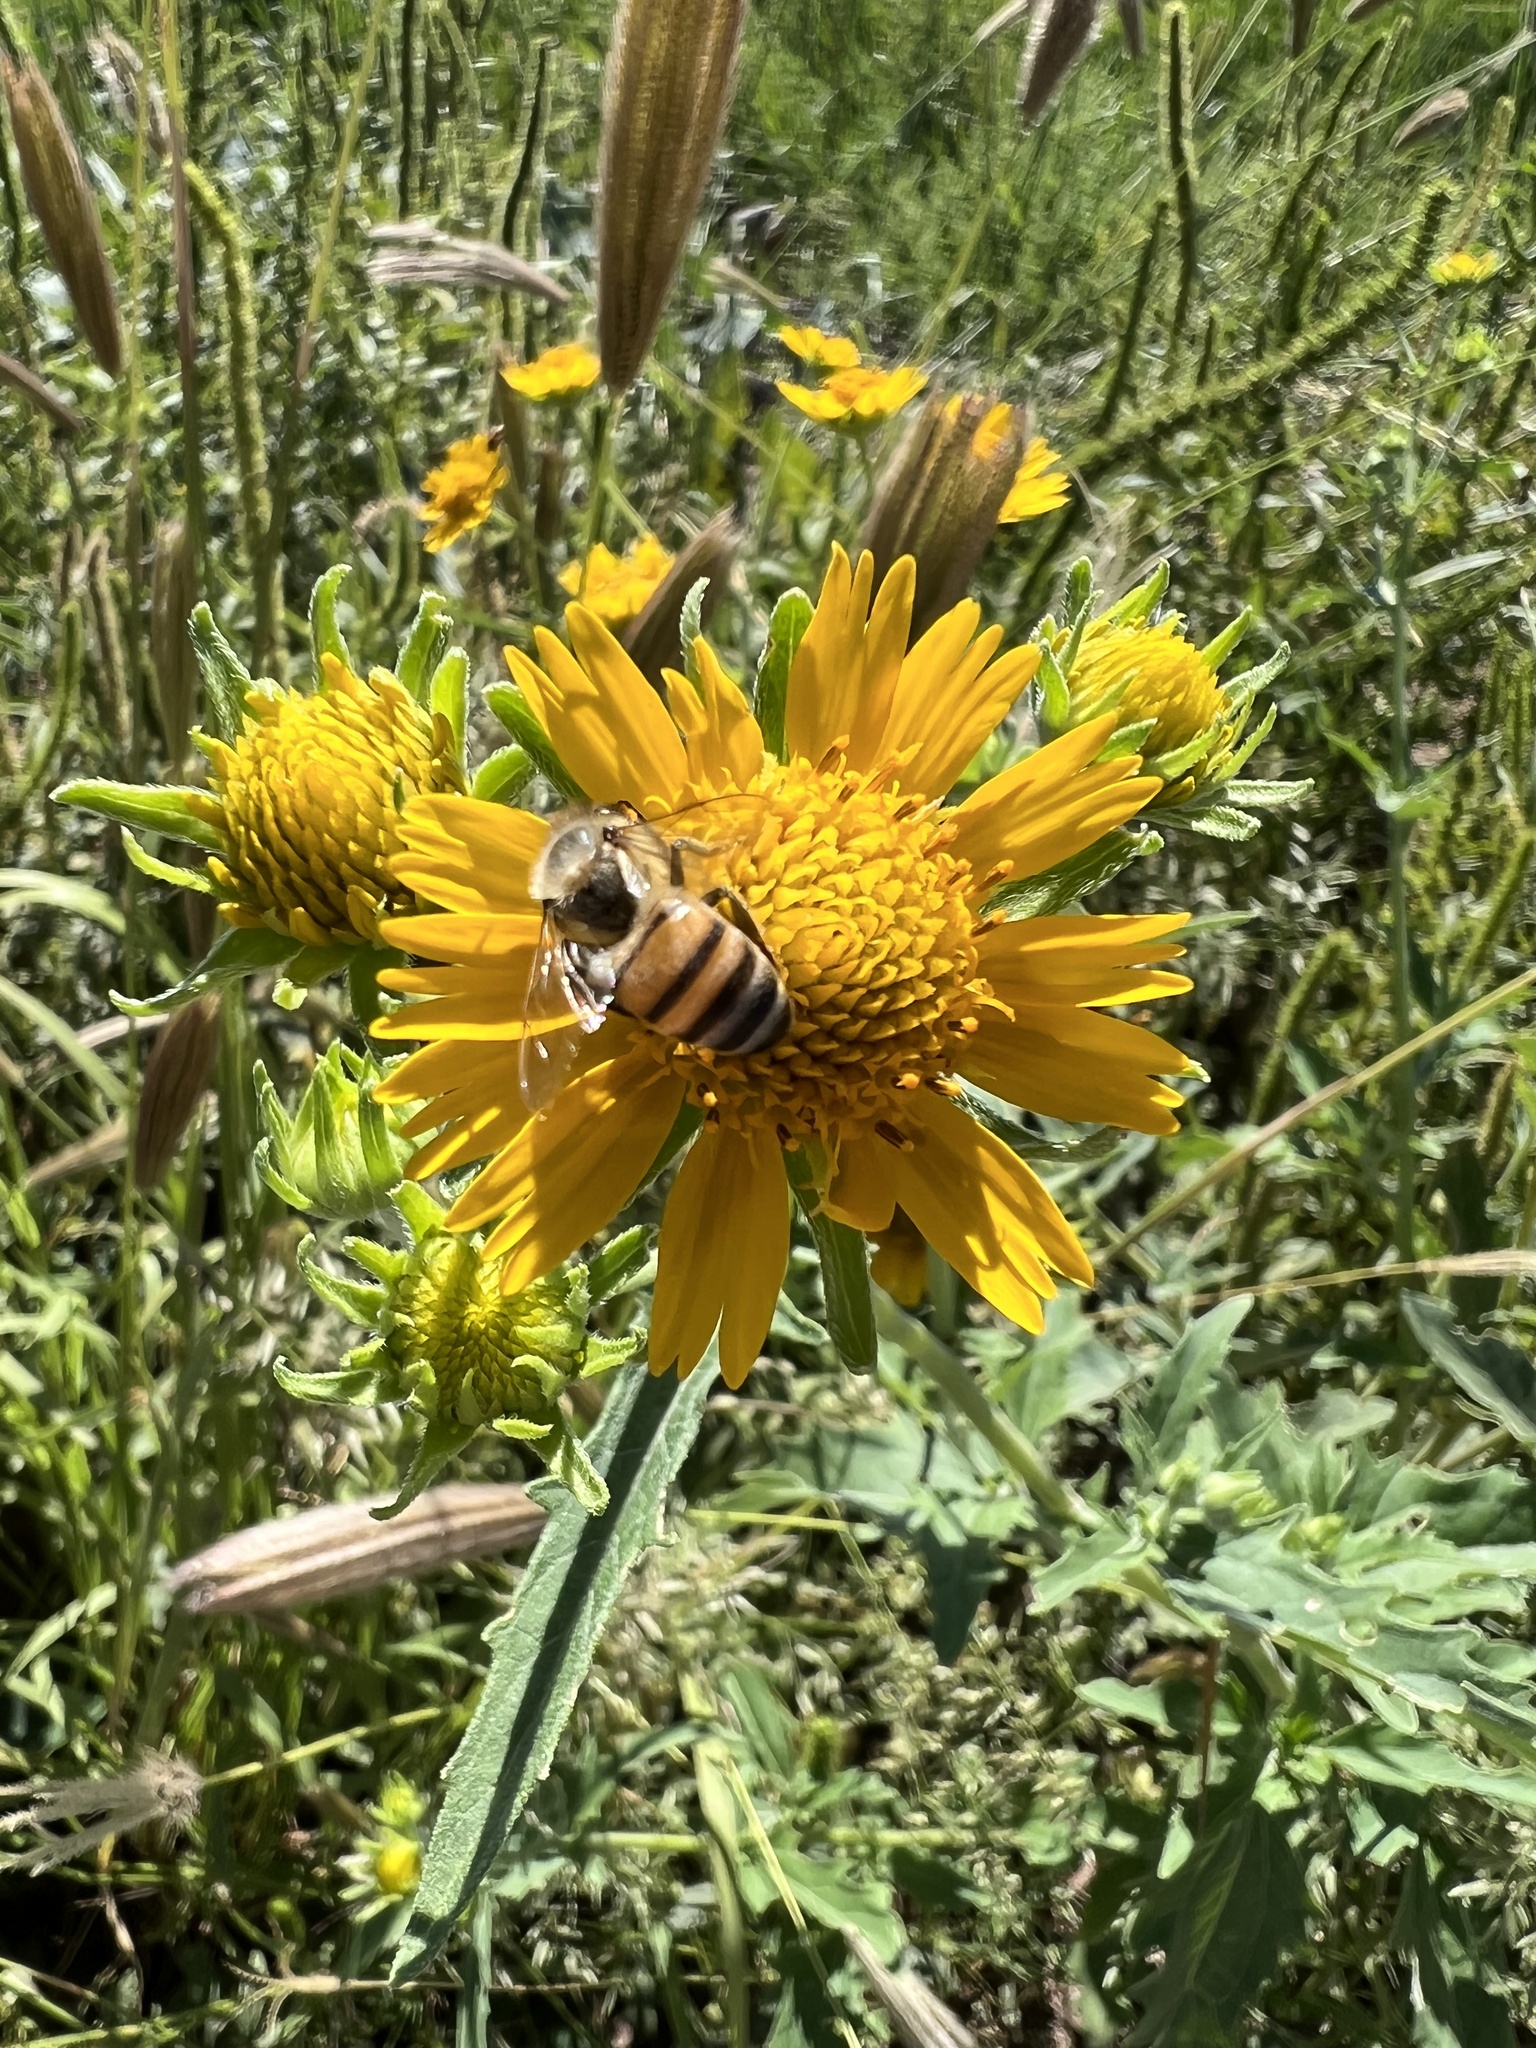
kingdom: Animalia
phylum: Arthropoda
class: Insecta
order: Hymenoptera
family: Apidae
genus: Apis
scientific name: Apis mellifera
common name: Honey bee
